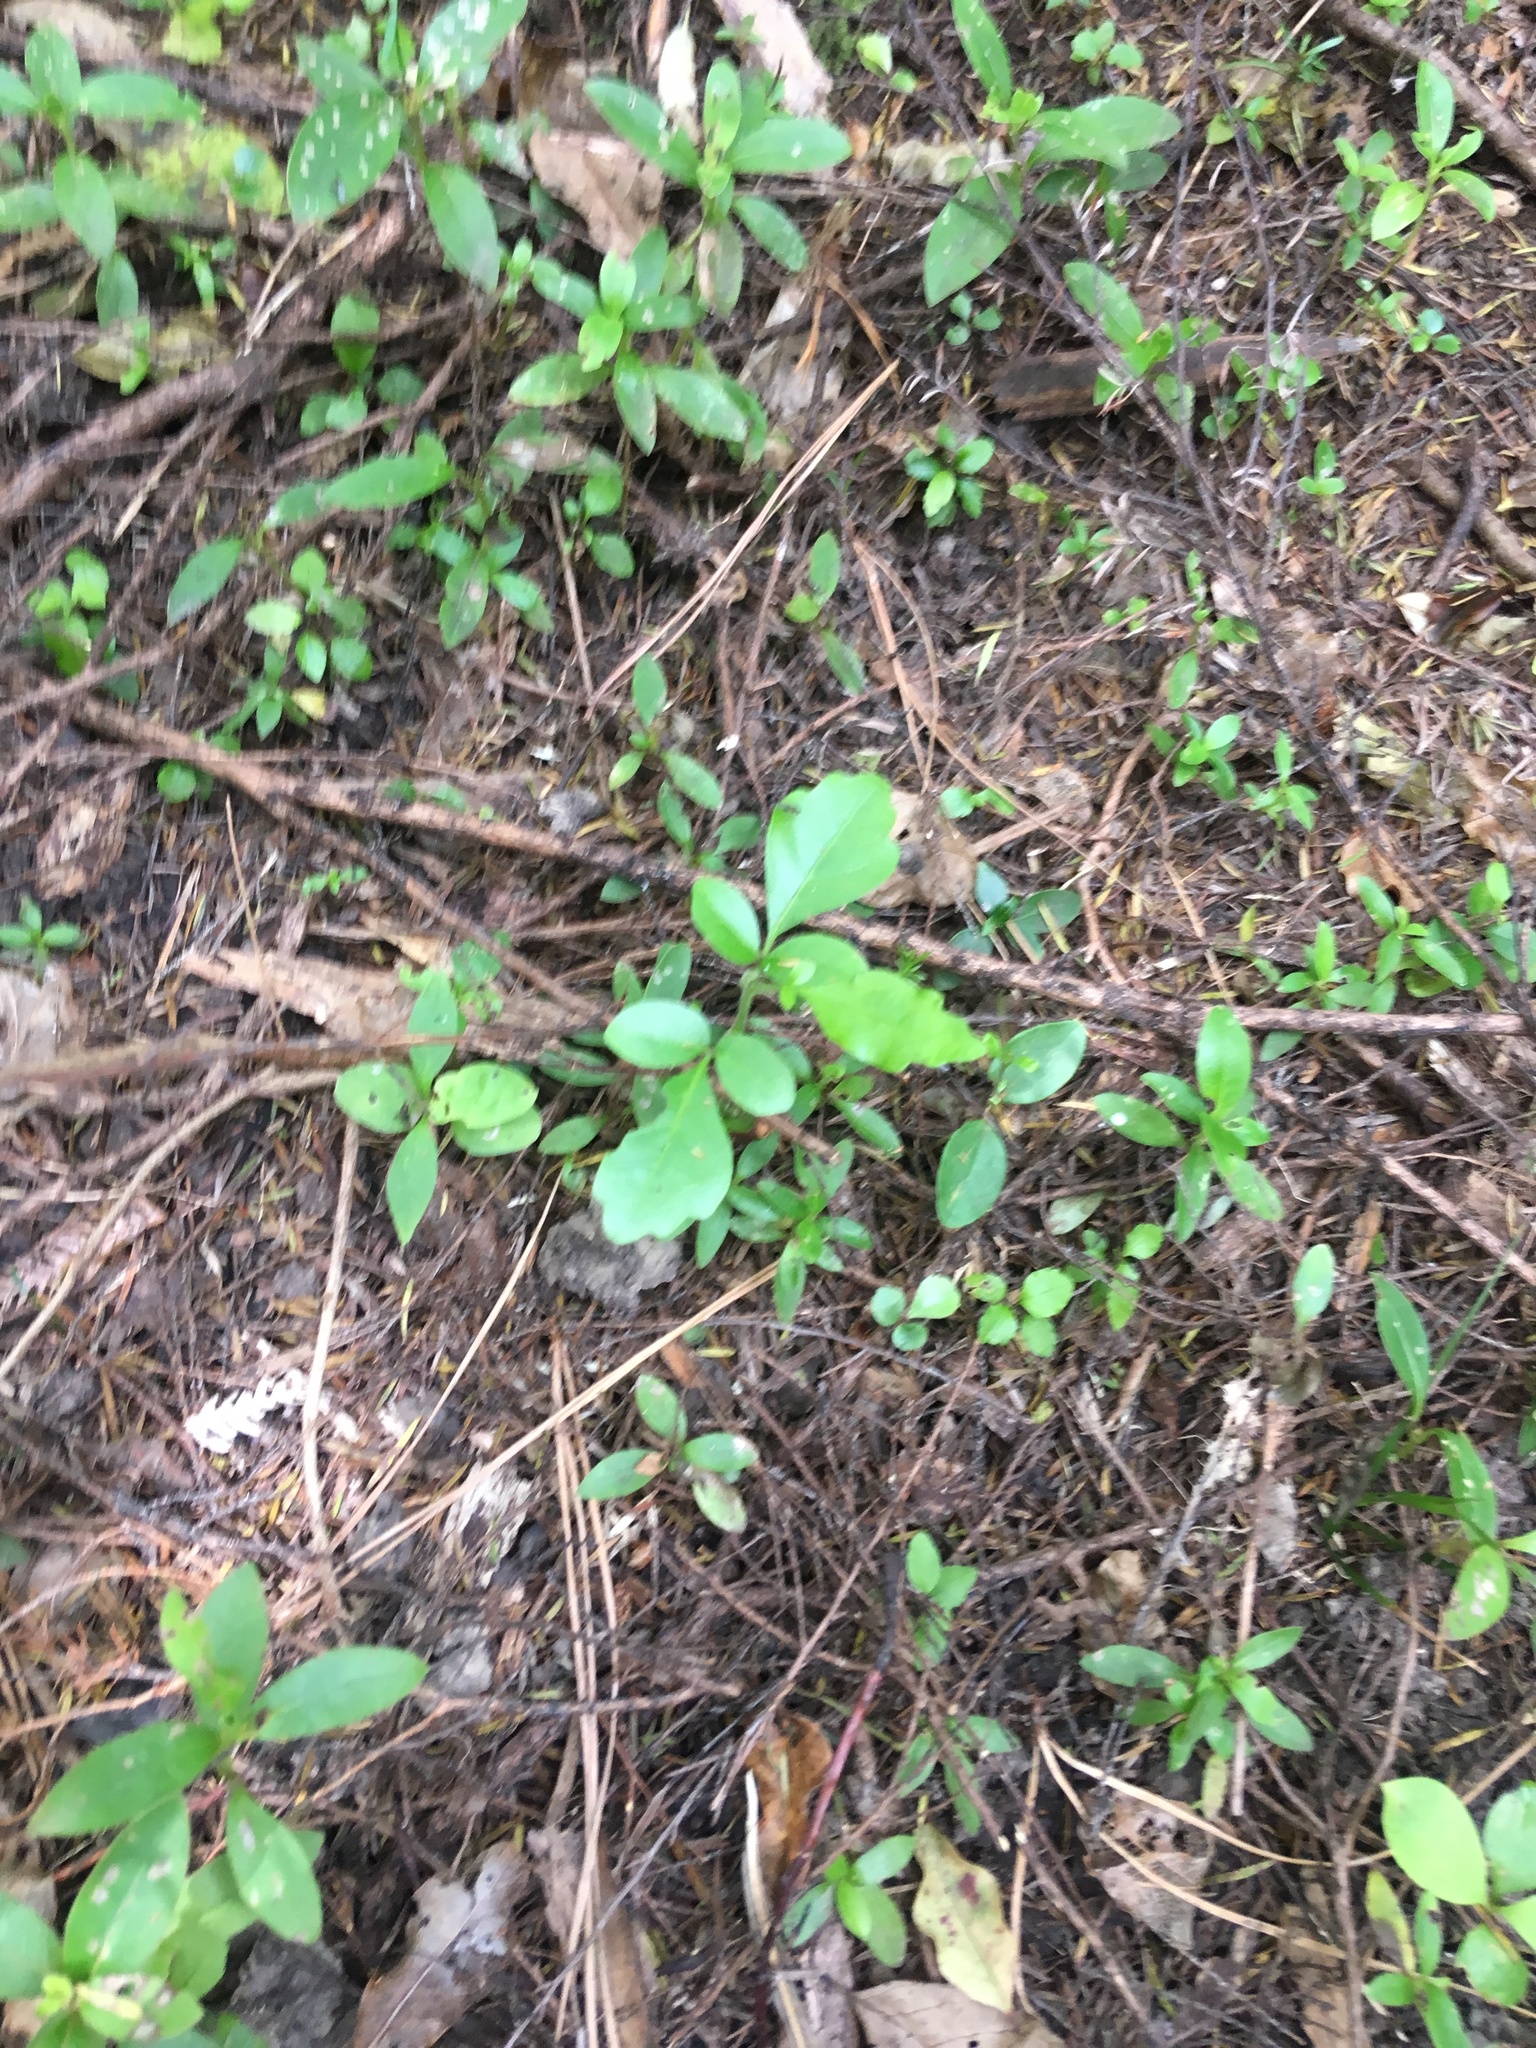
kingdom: Plantae
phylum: Tracheophyta
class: Magnoliopsida
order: Sapindales
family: Meliaceae
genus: Didymocheton
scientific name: Didymocheton spectabilis
